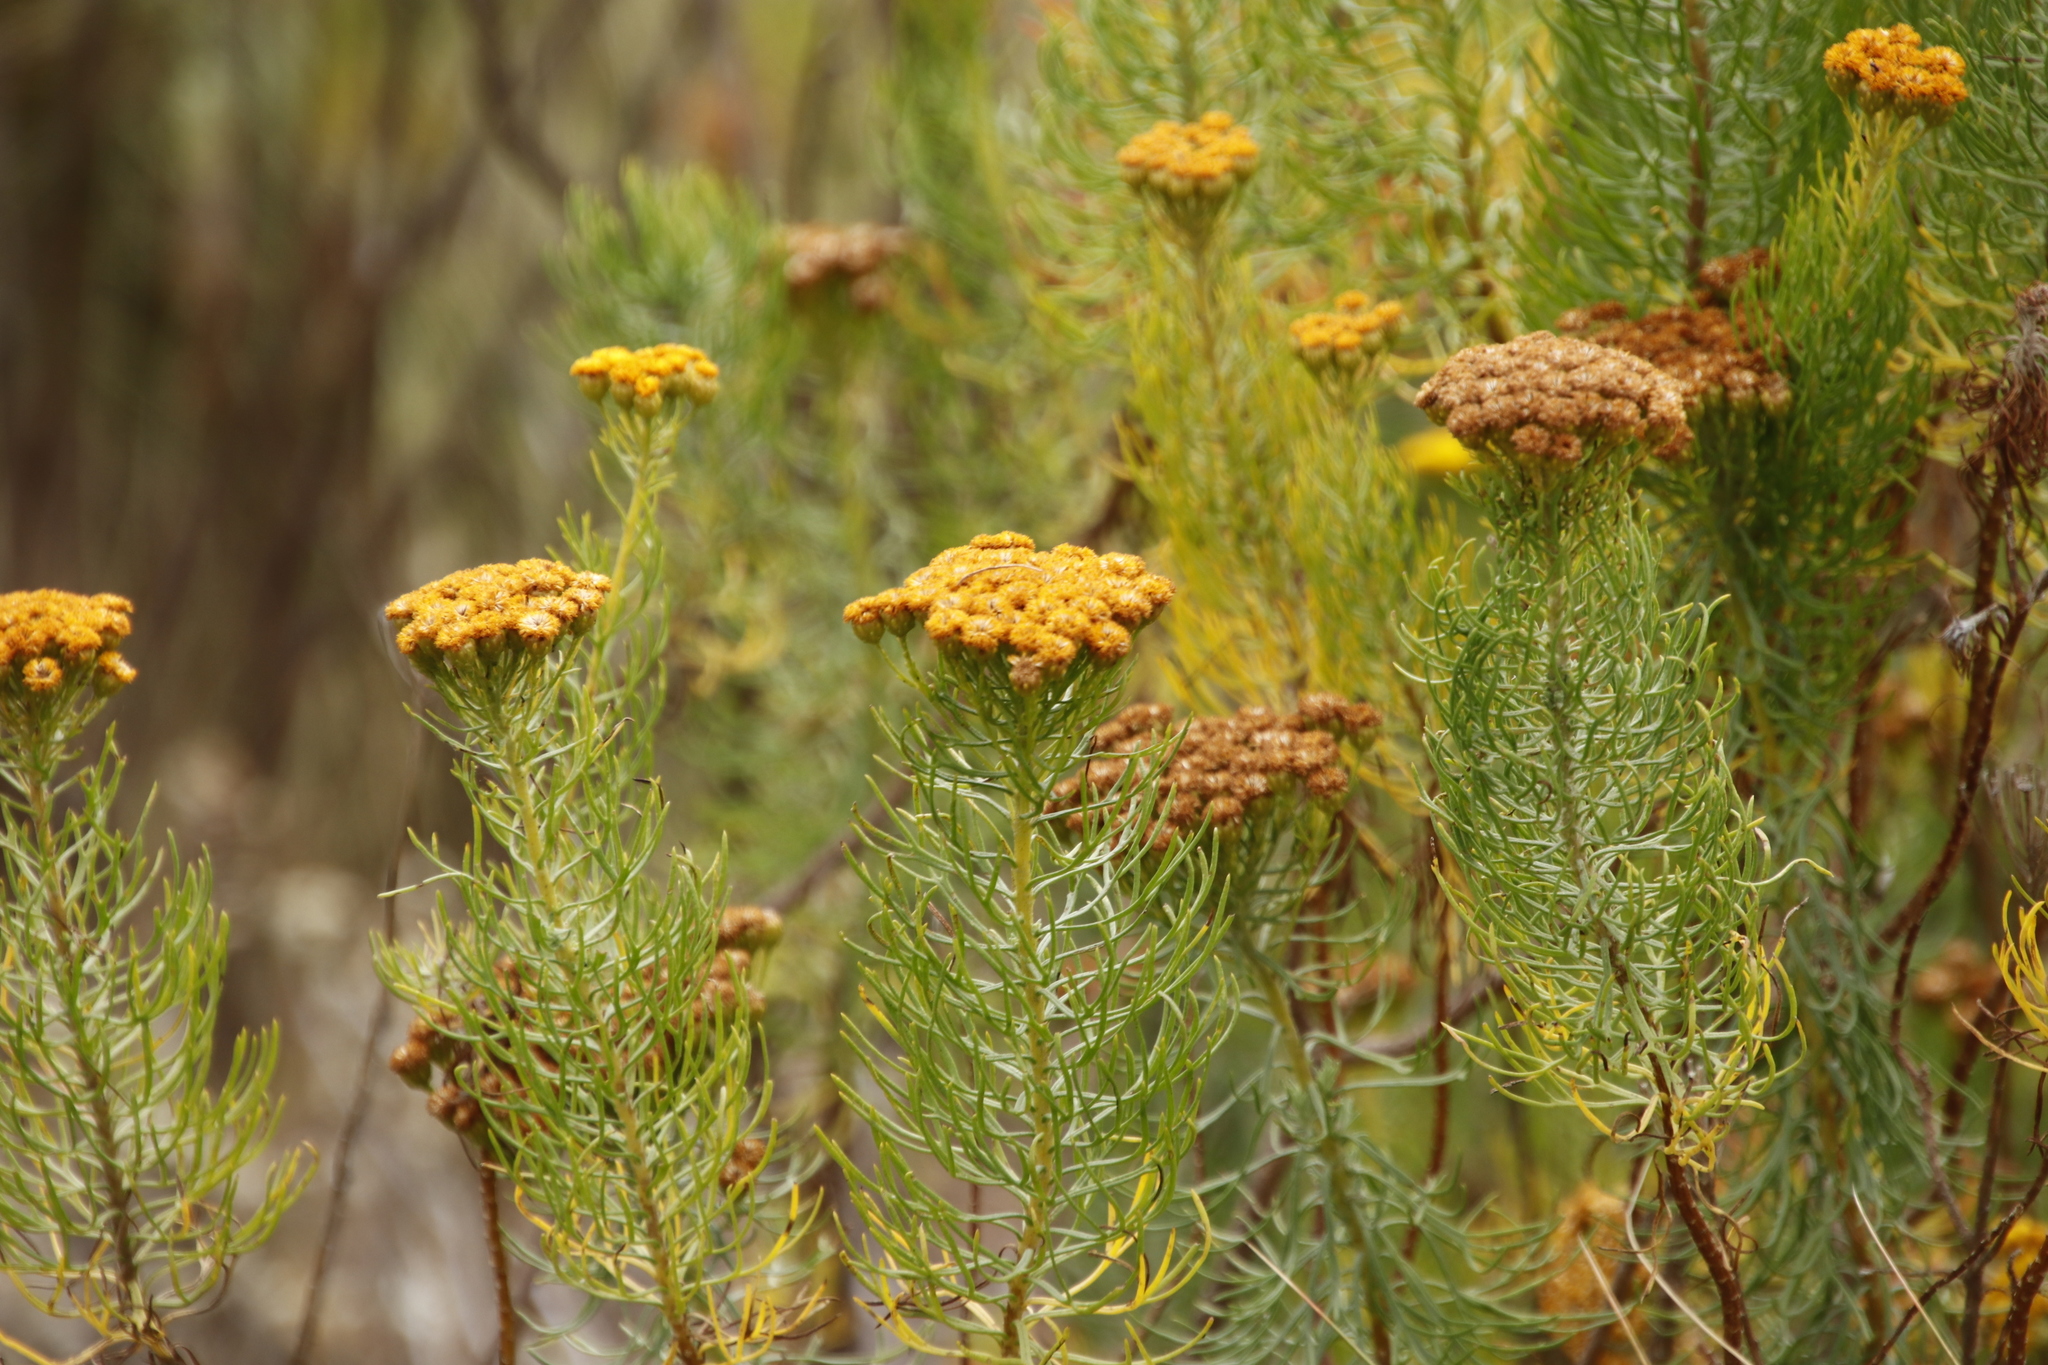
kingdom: Plantae
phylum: Tracheophyta
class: Magnoliopsida
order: Asterales
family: Asteraceae
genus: Athanasia
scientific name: Athanasia crithmifolia
